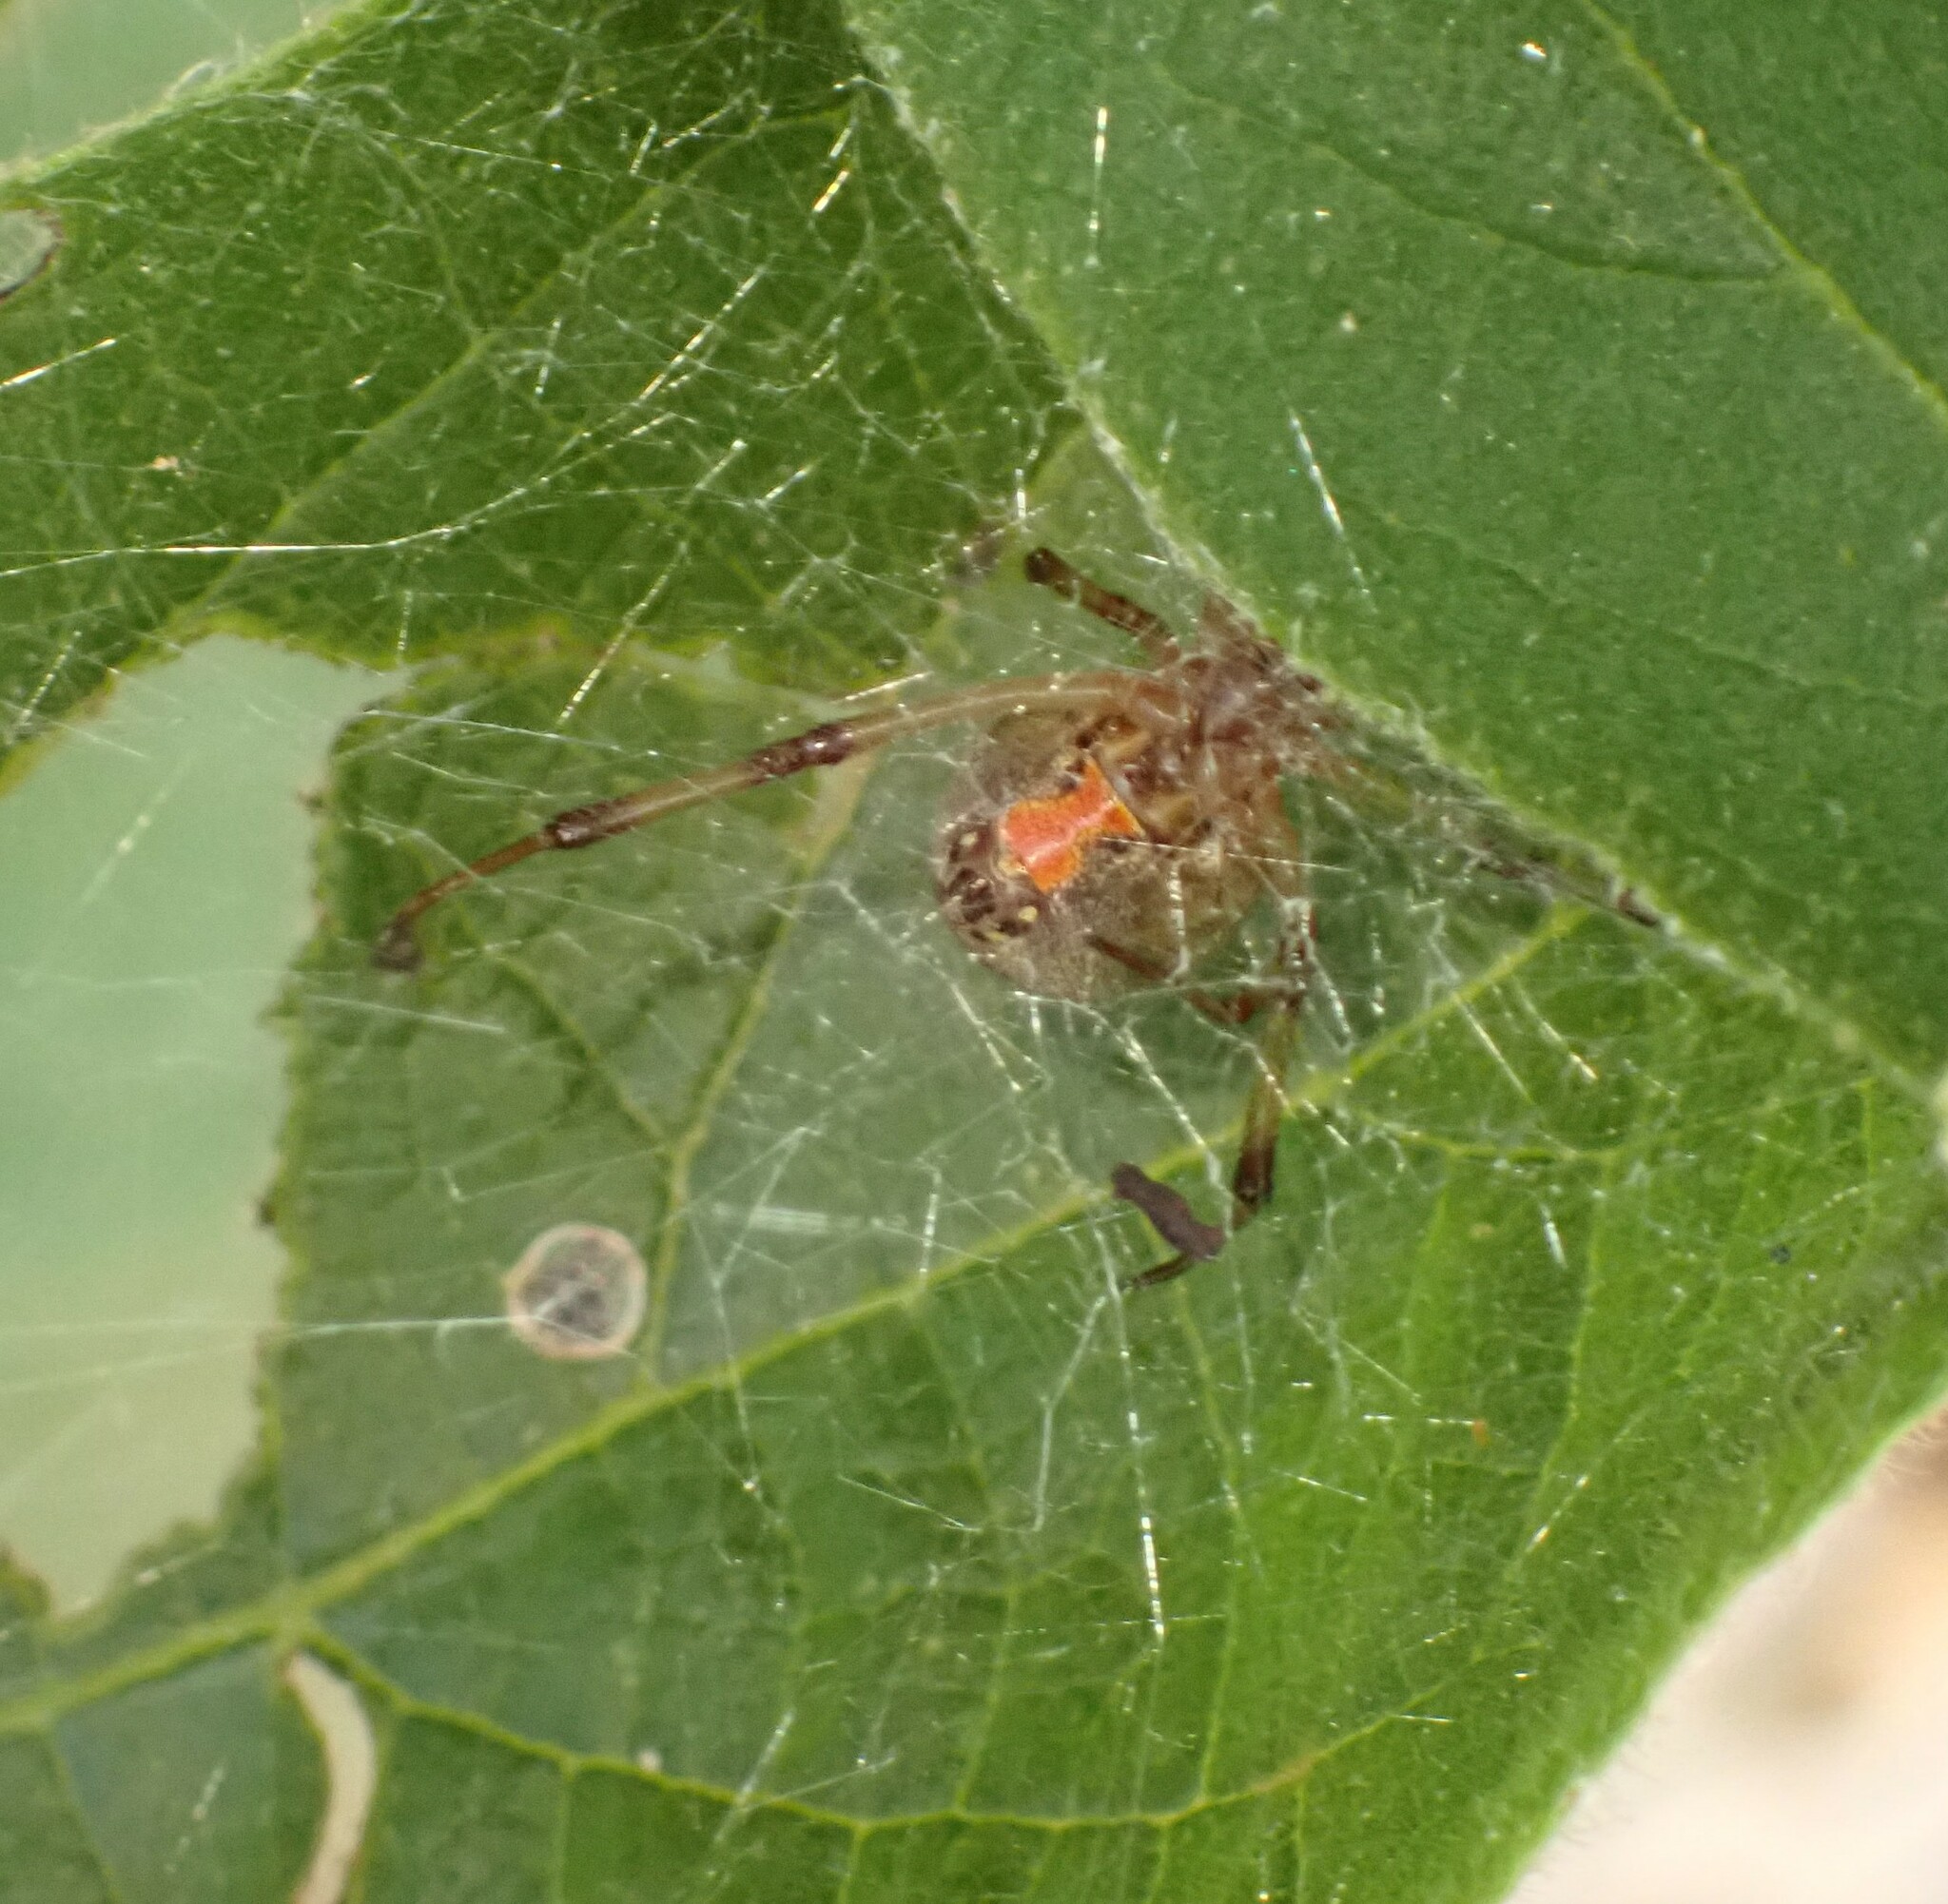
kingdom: Animalia
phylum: Arthropoda
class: Arachnida
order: Araneae
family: Theridiidae
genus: Latrodectus
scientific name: Latrodectus geometricus
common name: Brown widow spider
